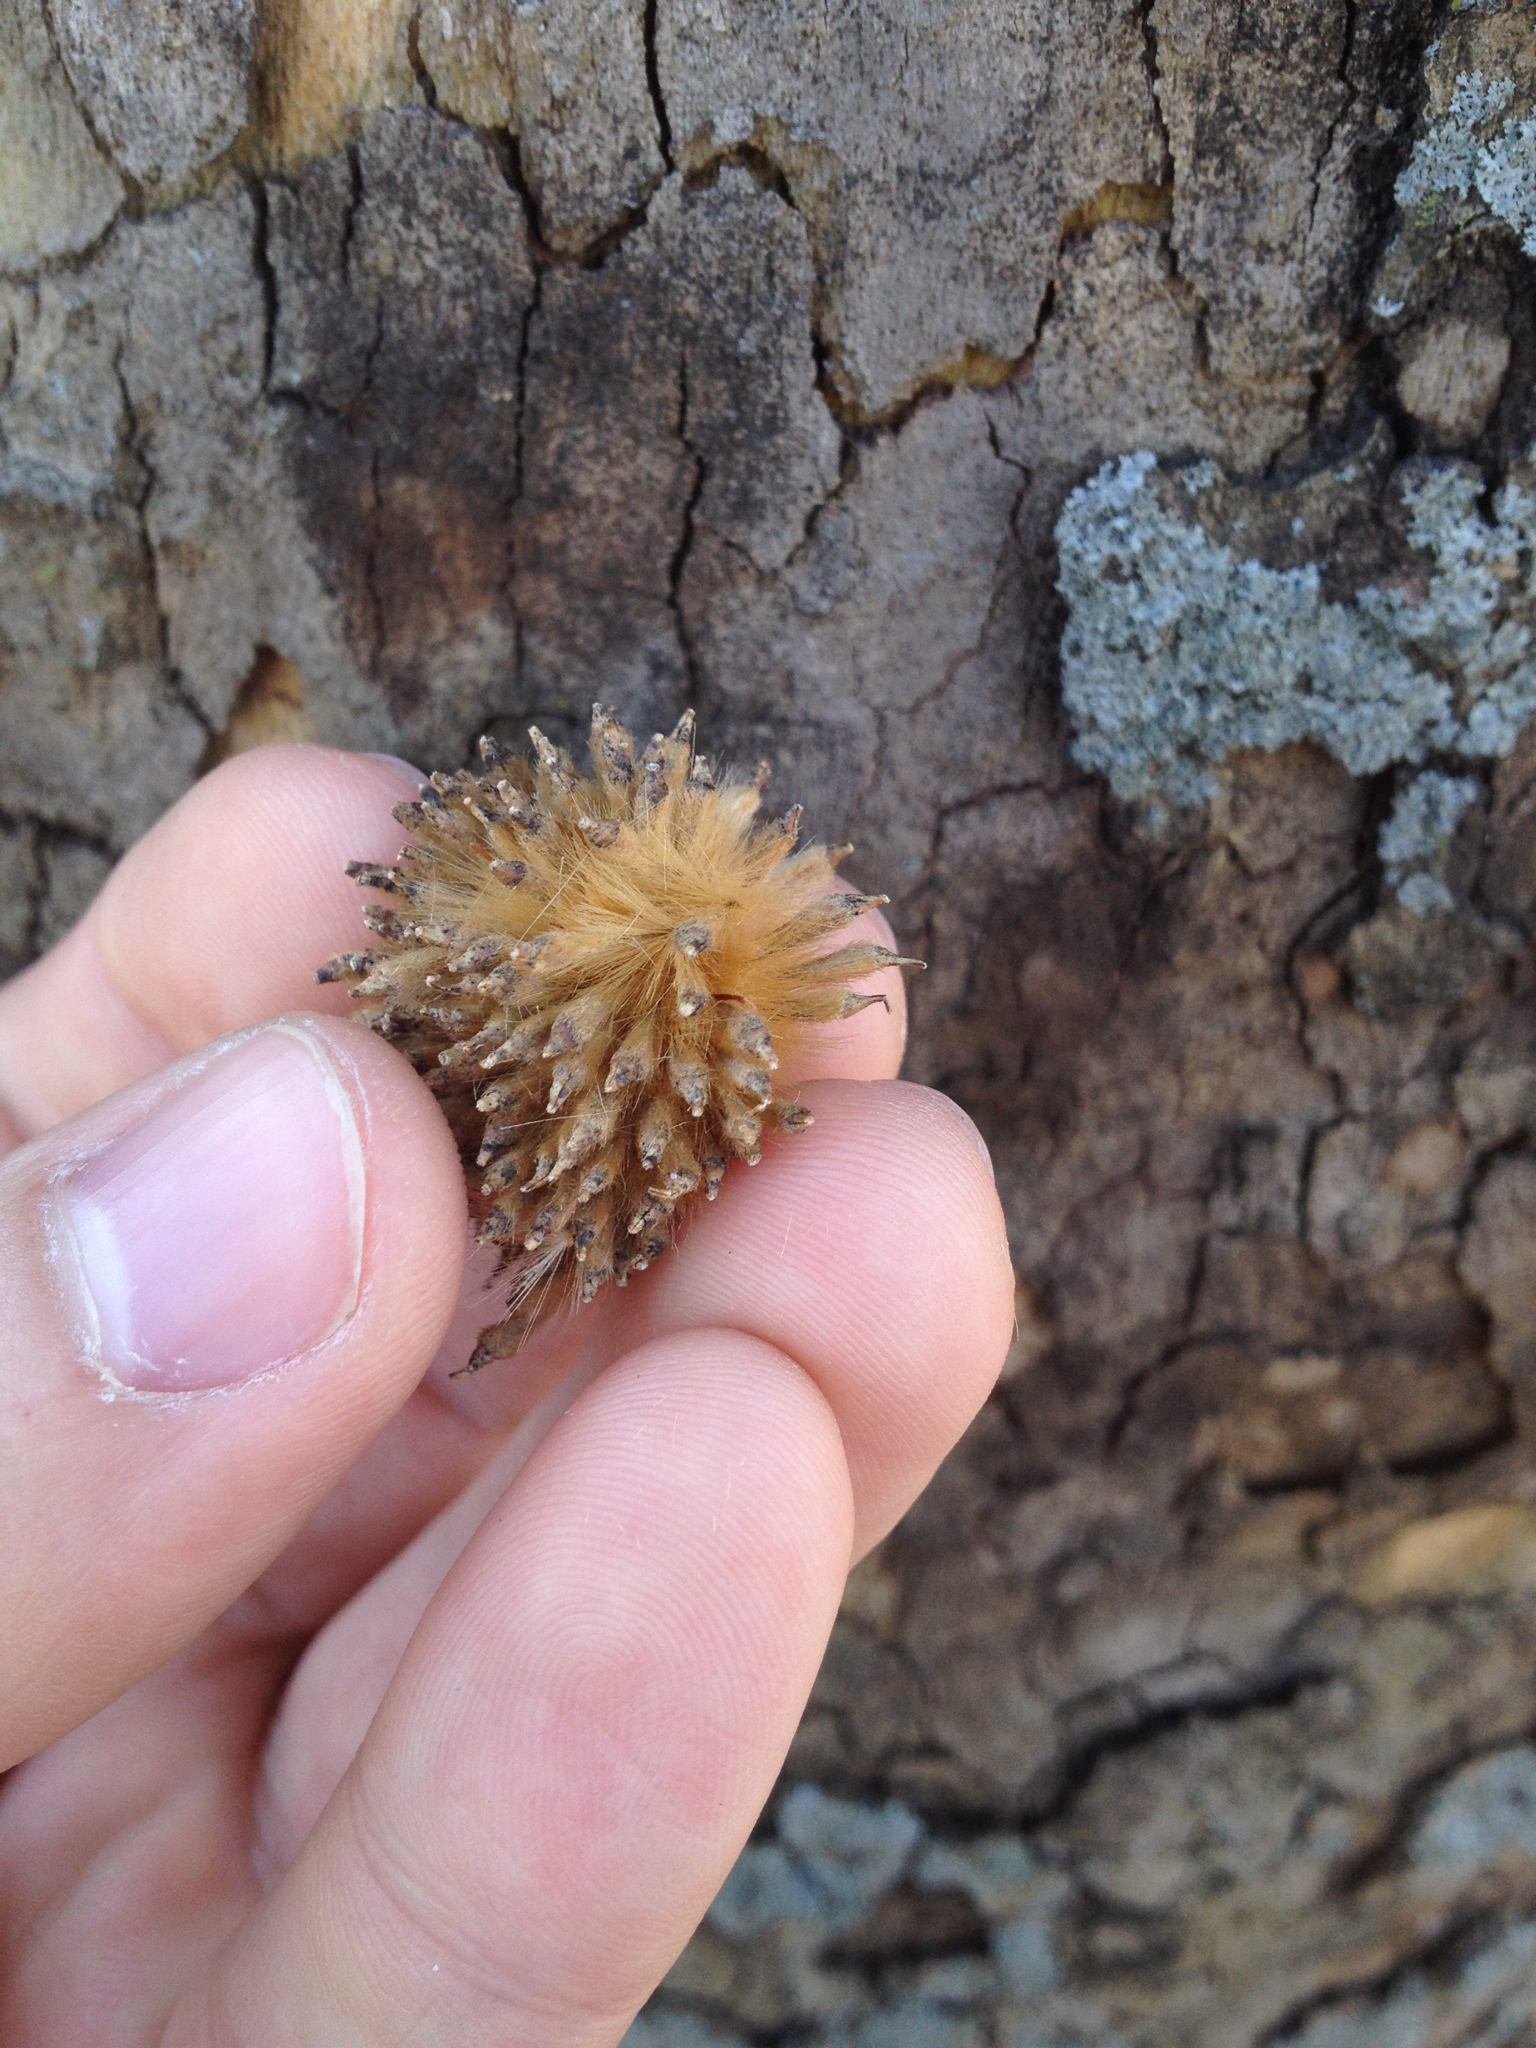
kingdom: Plantae
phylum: Tracheophyta
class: Magnoliopsida
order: Proteales
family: Platanaceae
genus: Platanus
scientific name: Platanus occidentalis
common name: American sycamore
